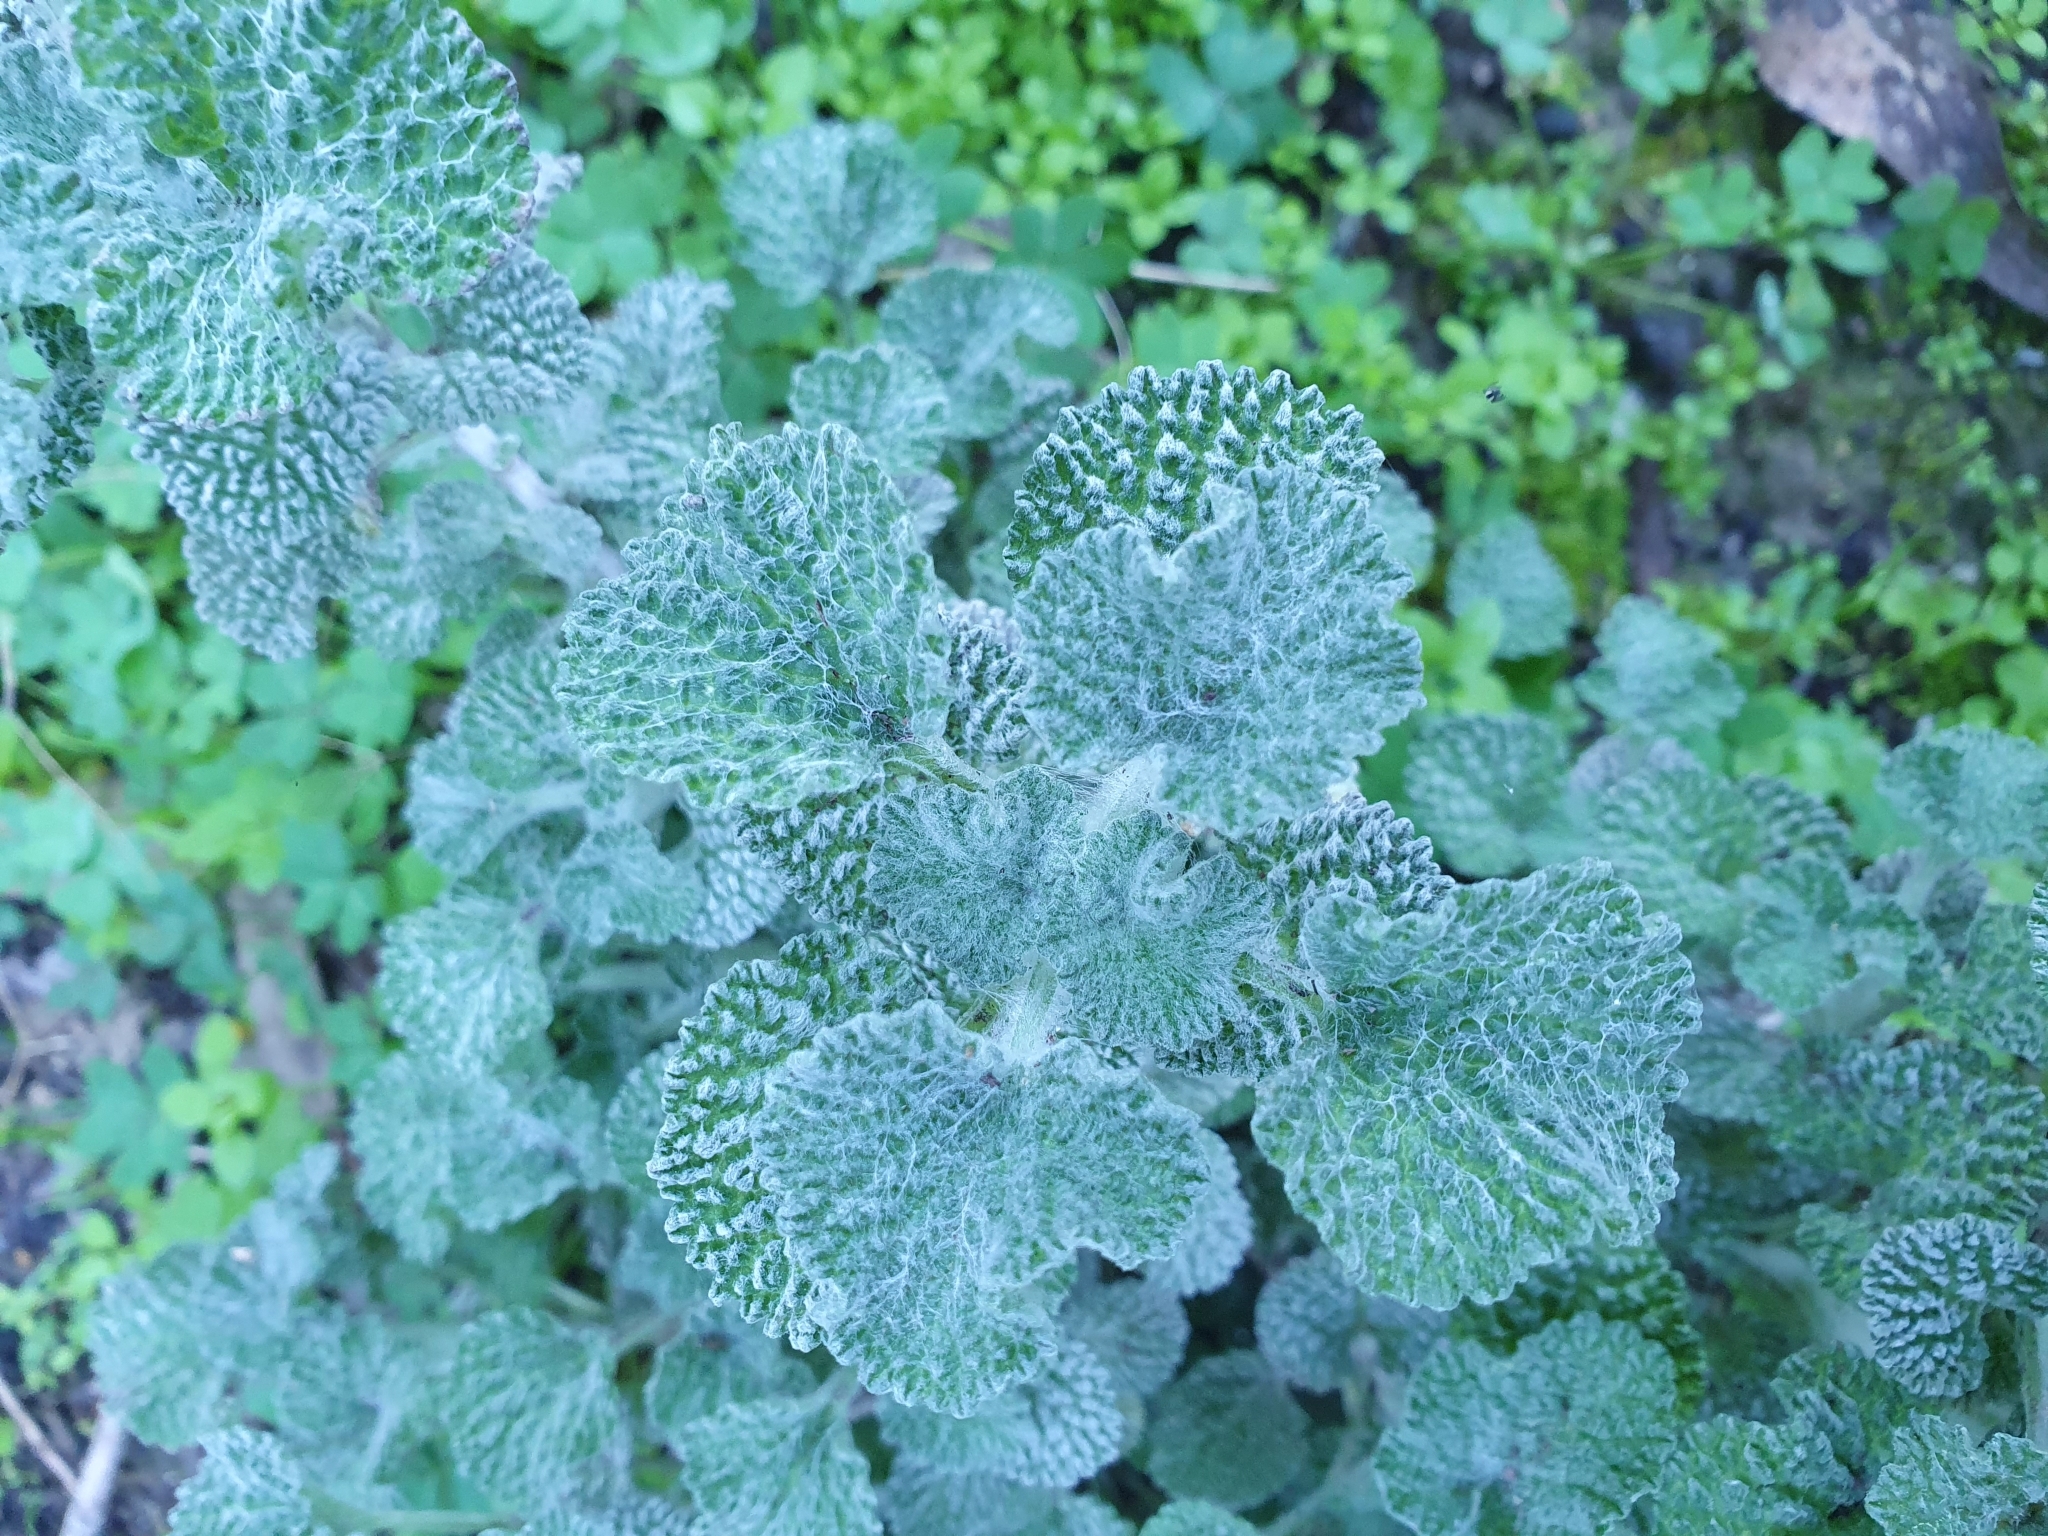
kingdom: Plantae
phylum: Tracheophyta
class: Magnoliopsida
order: Lamiales
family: Lamiaceae
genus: Marrubium
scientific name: Marrubium vulgare
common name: Horehound
